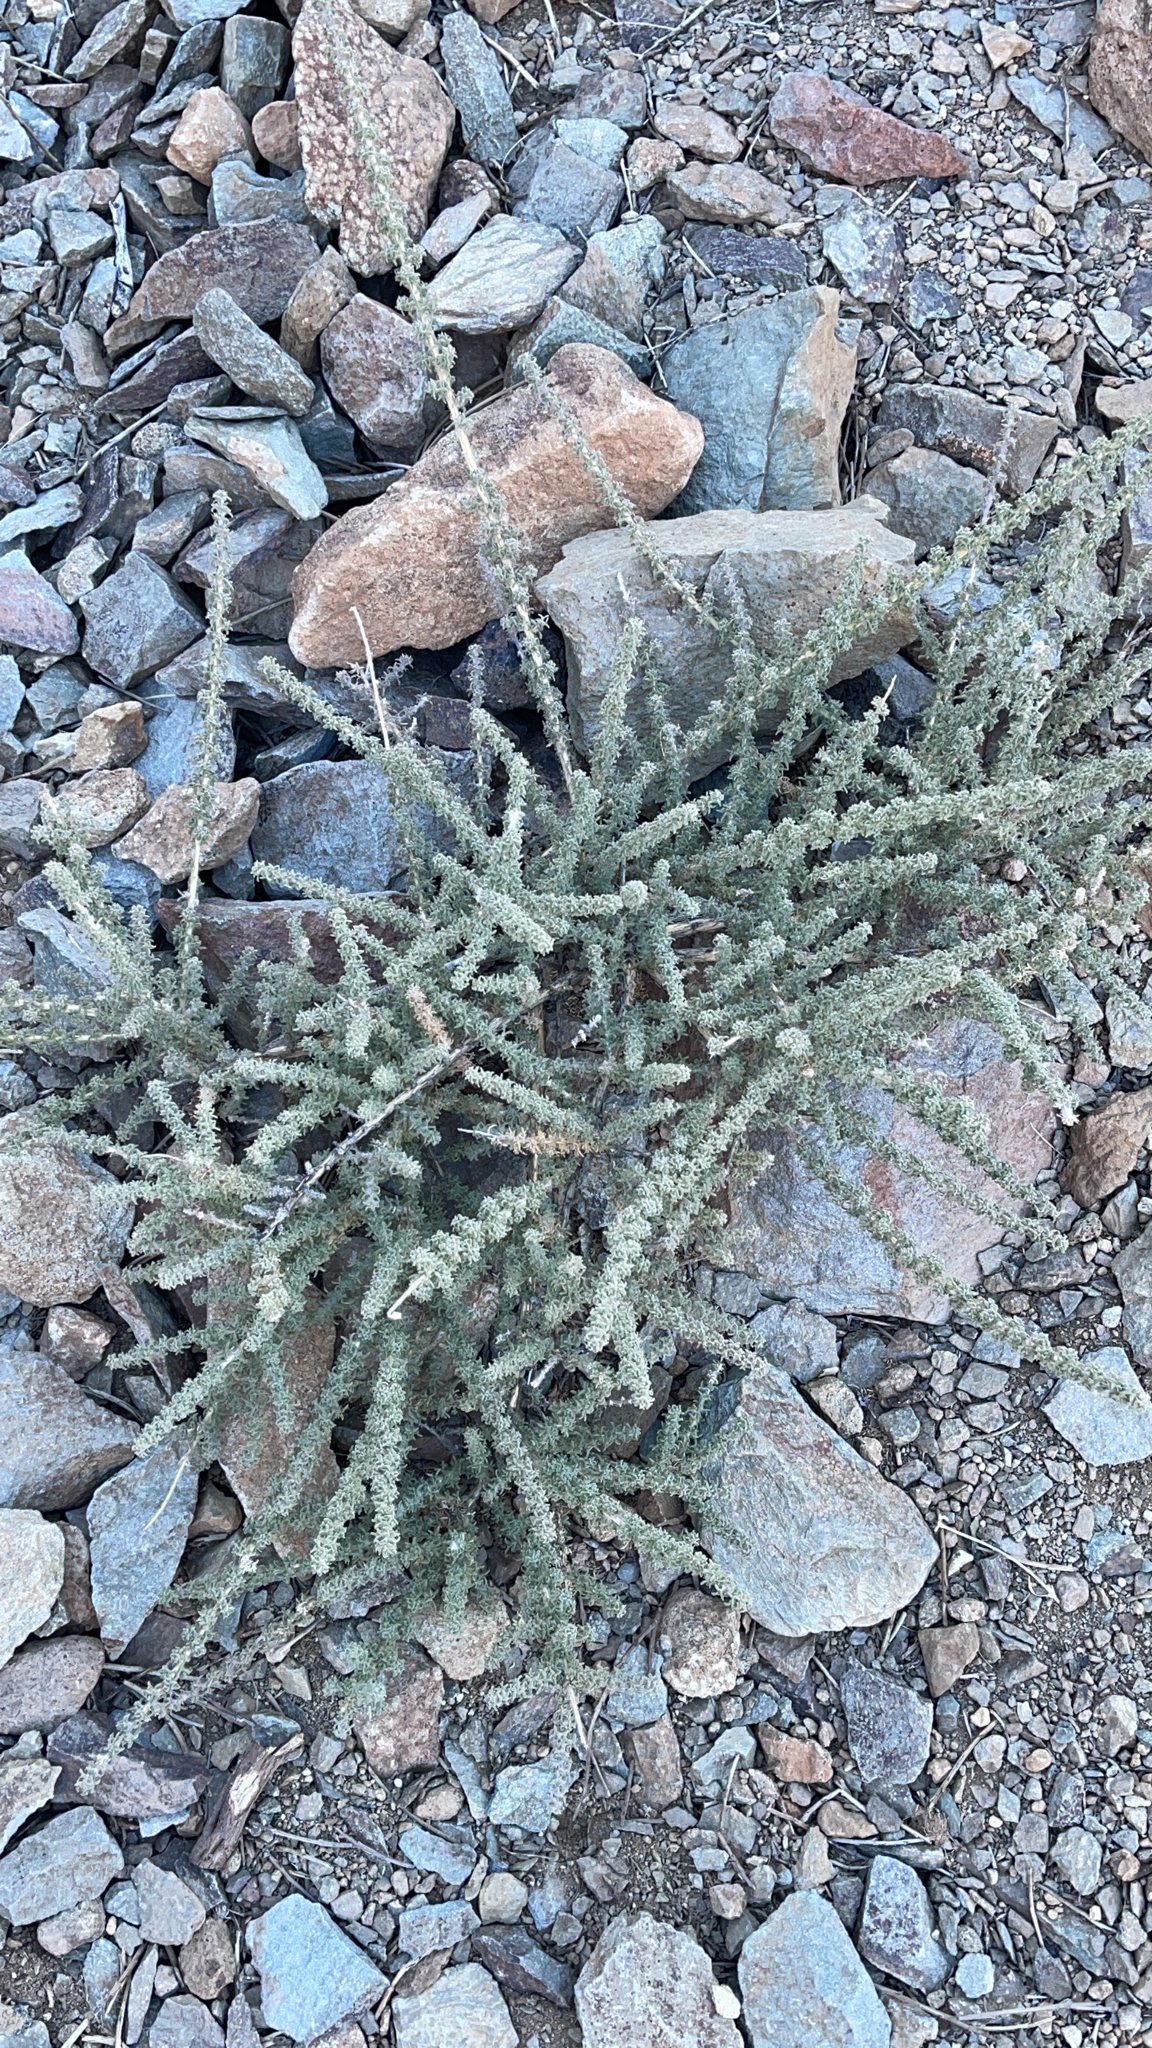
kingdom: Plantae
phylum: Tracheophyta
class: Magnoliopsida
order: Fabales
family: Fabaceae
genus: Adenocarpus
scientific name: Adenocarpus viscosus
